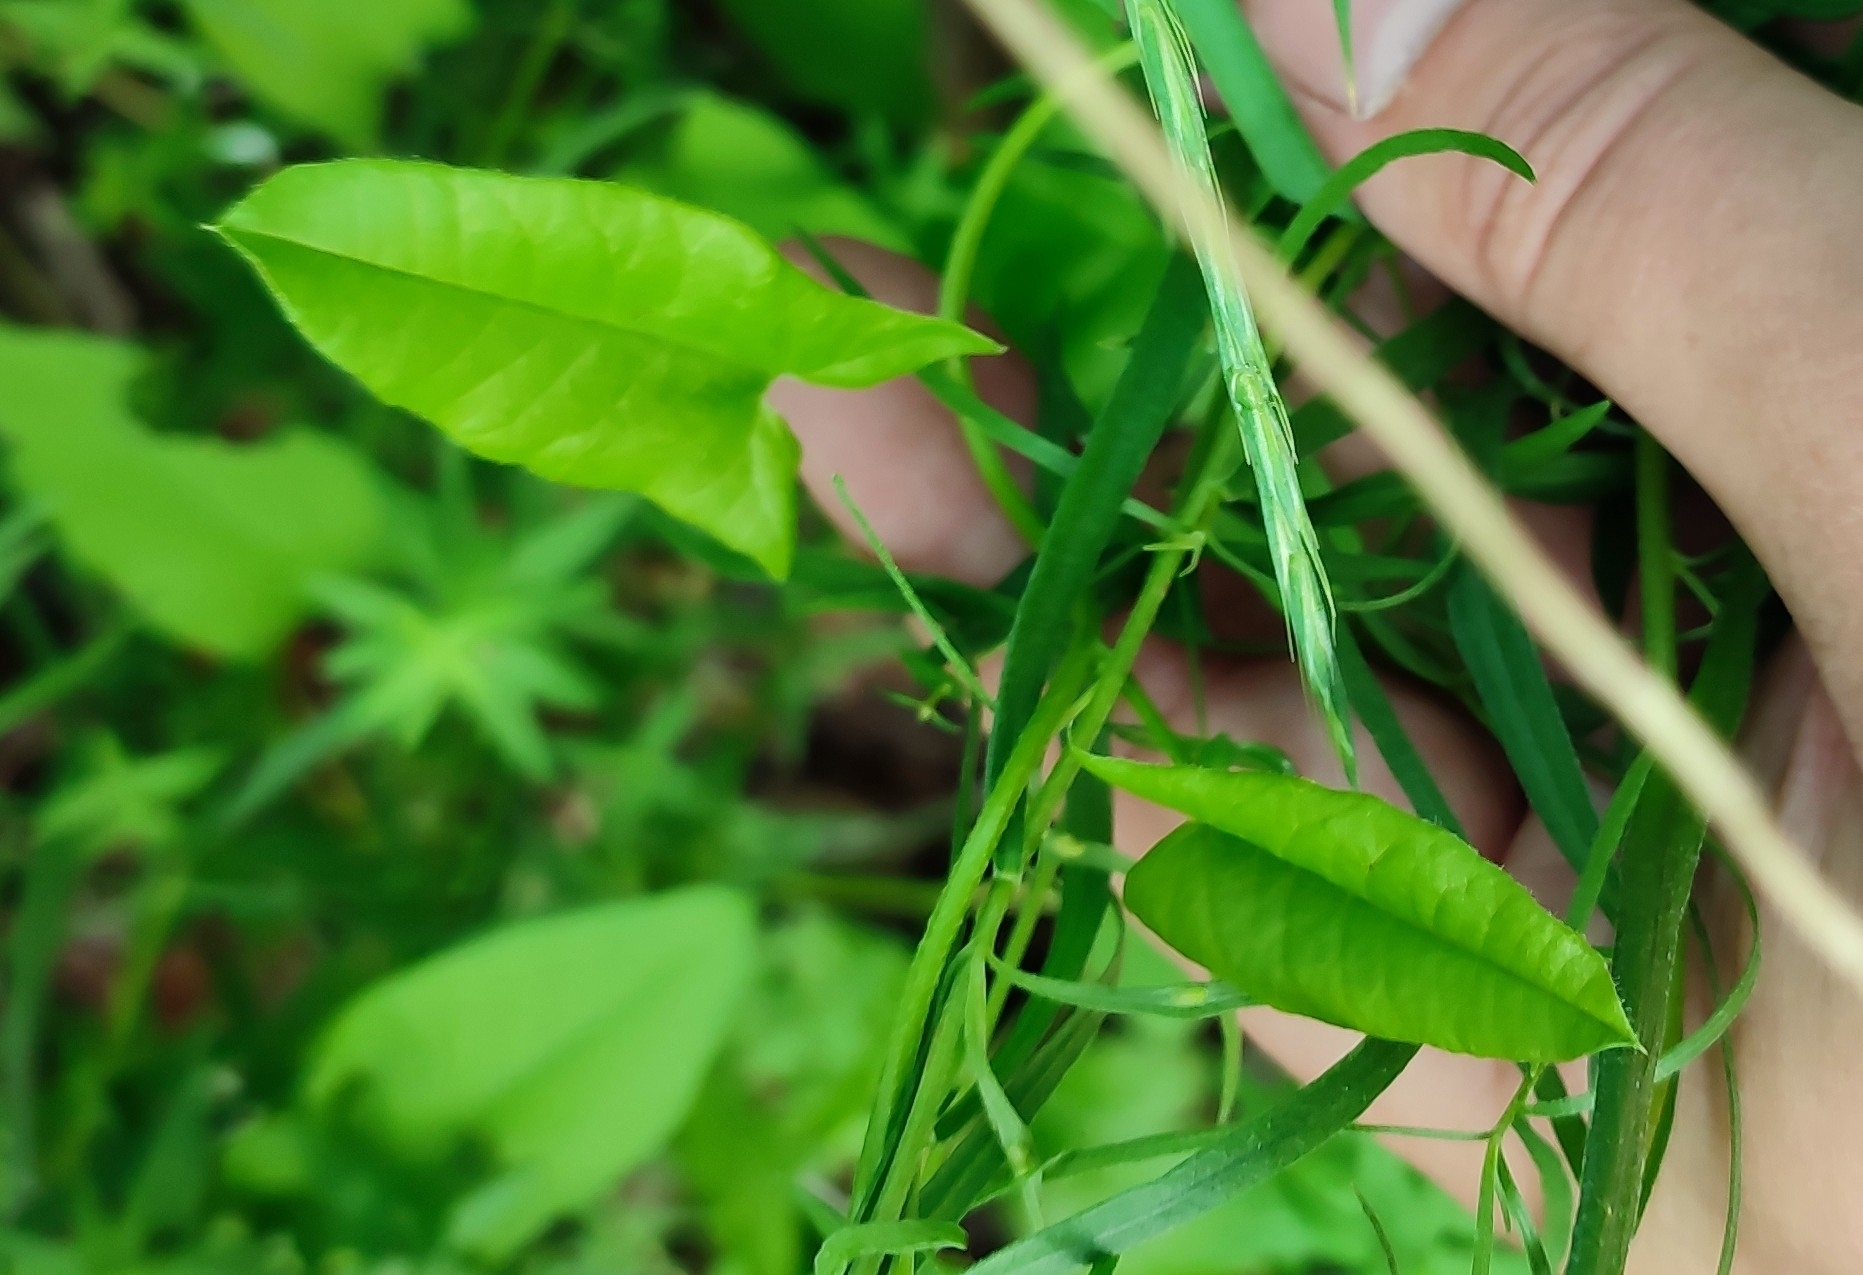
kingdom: Plantae
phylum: Tracheophyta
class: Magnoliopsida
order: Solanales
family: Convolvulaceae
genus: Convolvulus
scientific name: Convolvulus arvensis
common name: Field bindweed
